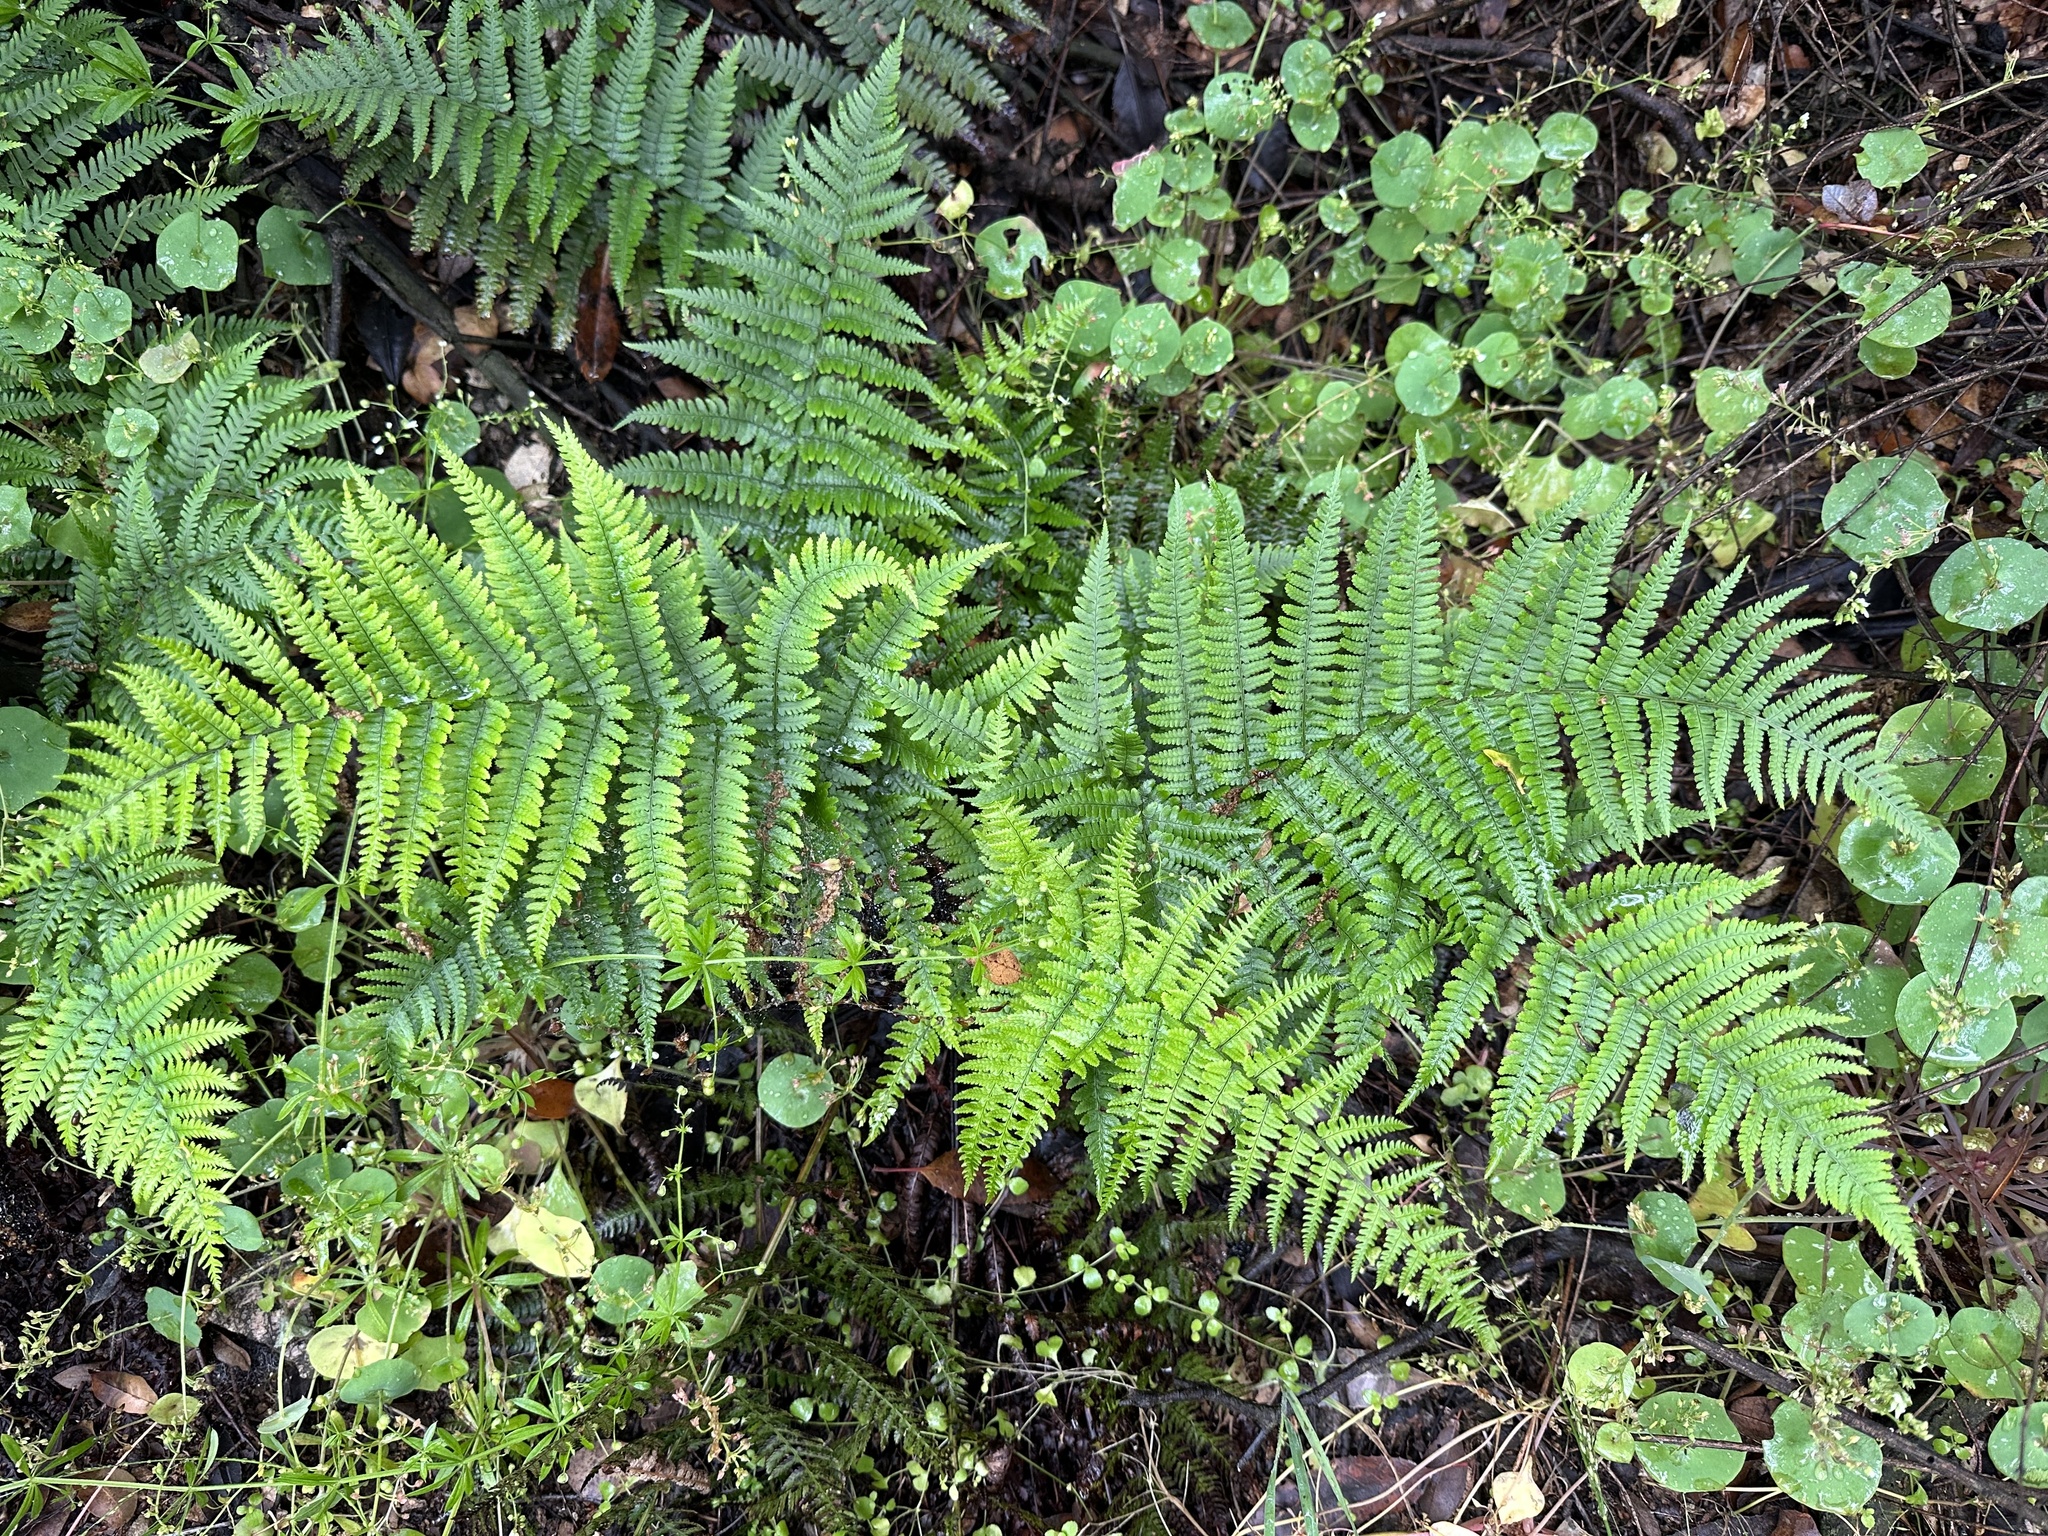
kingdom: Plantae
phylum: Tracheophyta
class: Polypodiopsida
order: Polypodiales
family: Dryopteridaceae
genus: Dryopteris
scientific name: Dryopteris arguta
